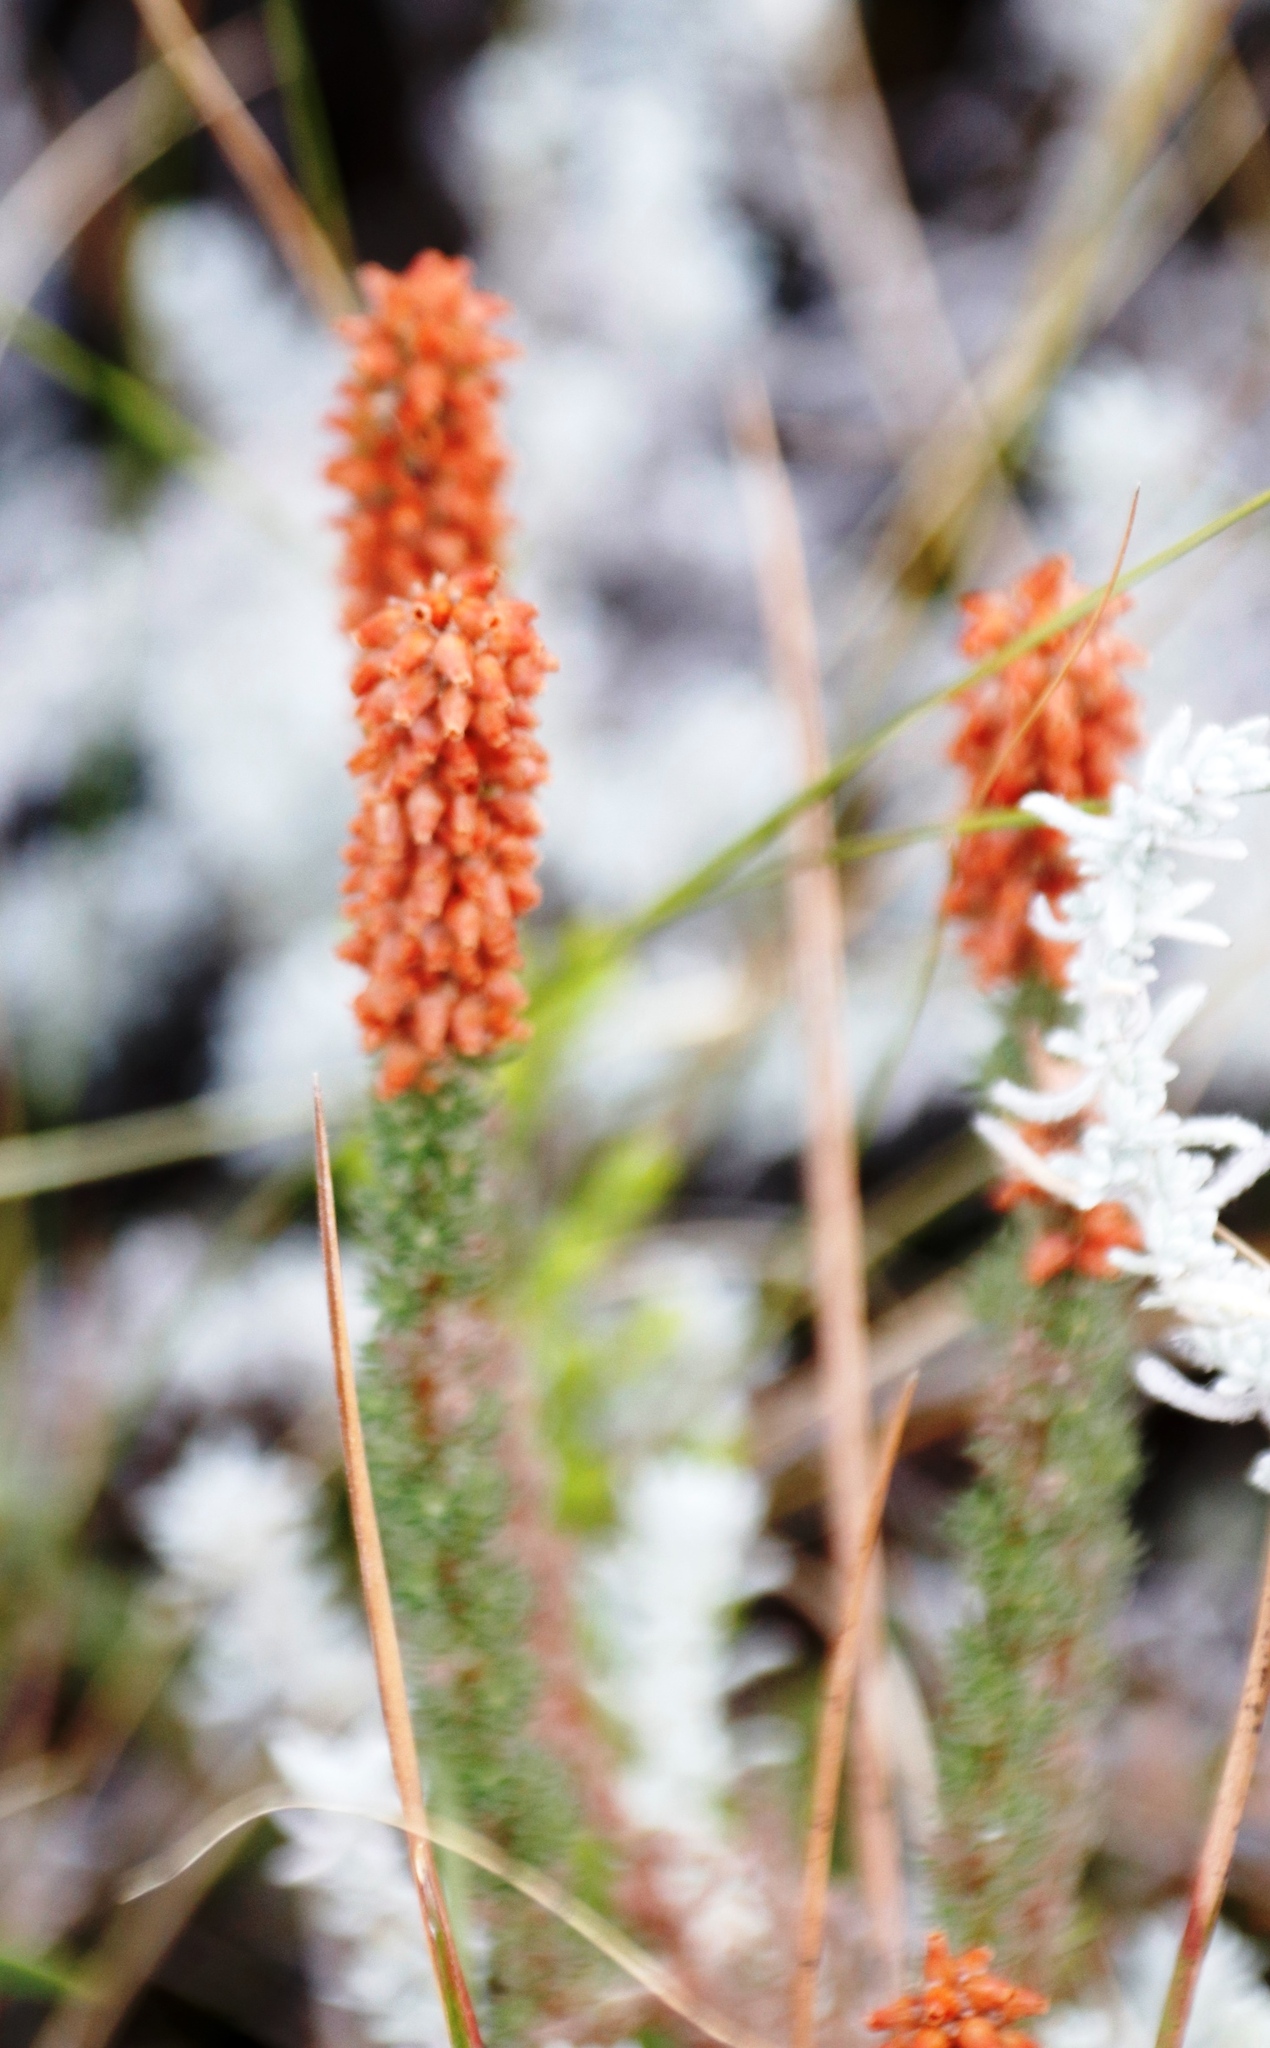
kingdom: Plantae
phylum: Tracheophyta
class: Magnoliopsida
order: Ericales
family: Ericaceae
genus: Erica
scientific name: Erica alopecurus
